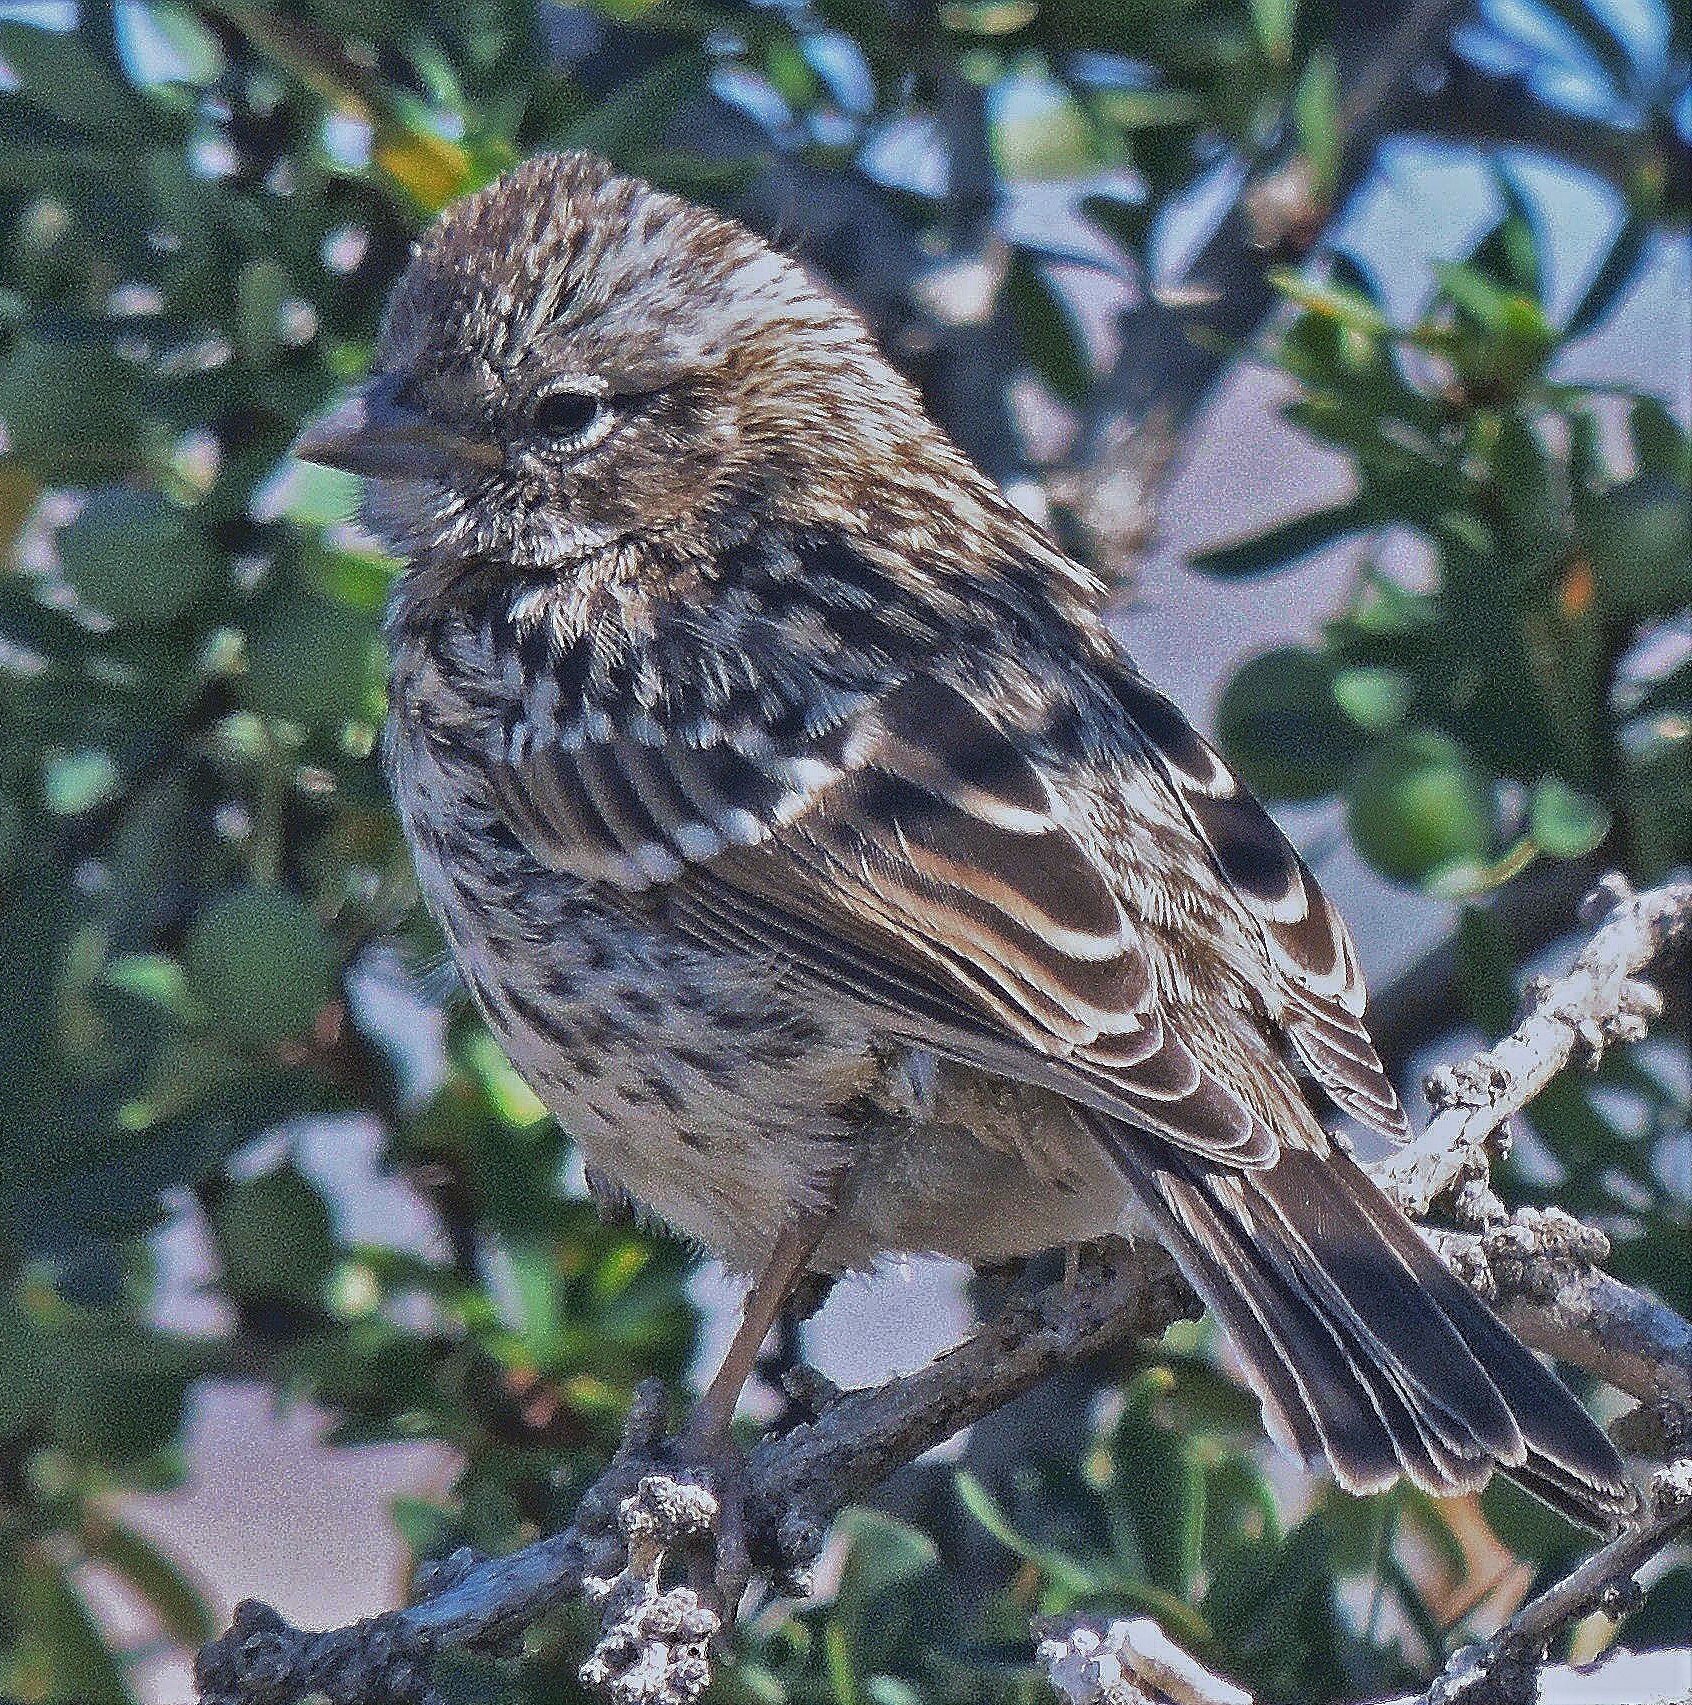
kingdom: Animalia
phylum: Chordata
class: Aves
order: Passeriformes
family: Passerellidae
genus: Zonotrichia
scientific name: Zonotrichia capensis
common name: Rufous-collared sparrow
